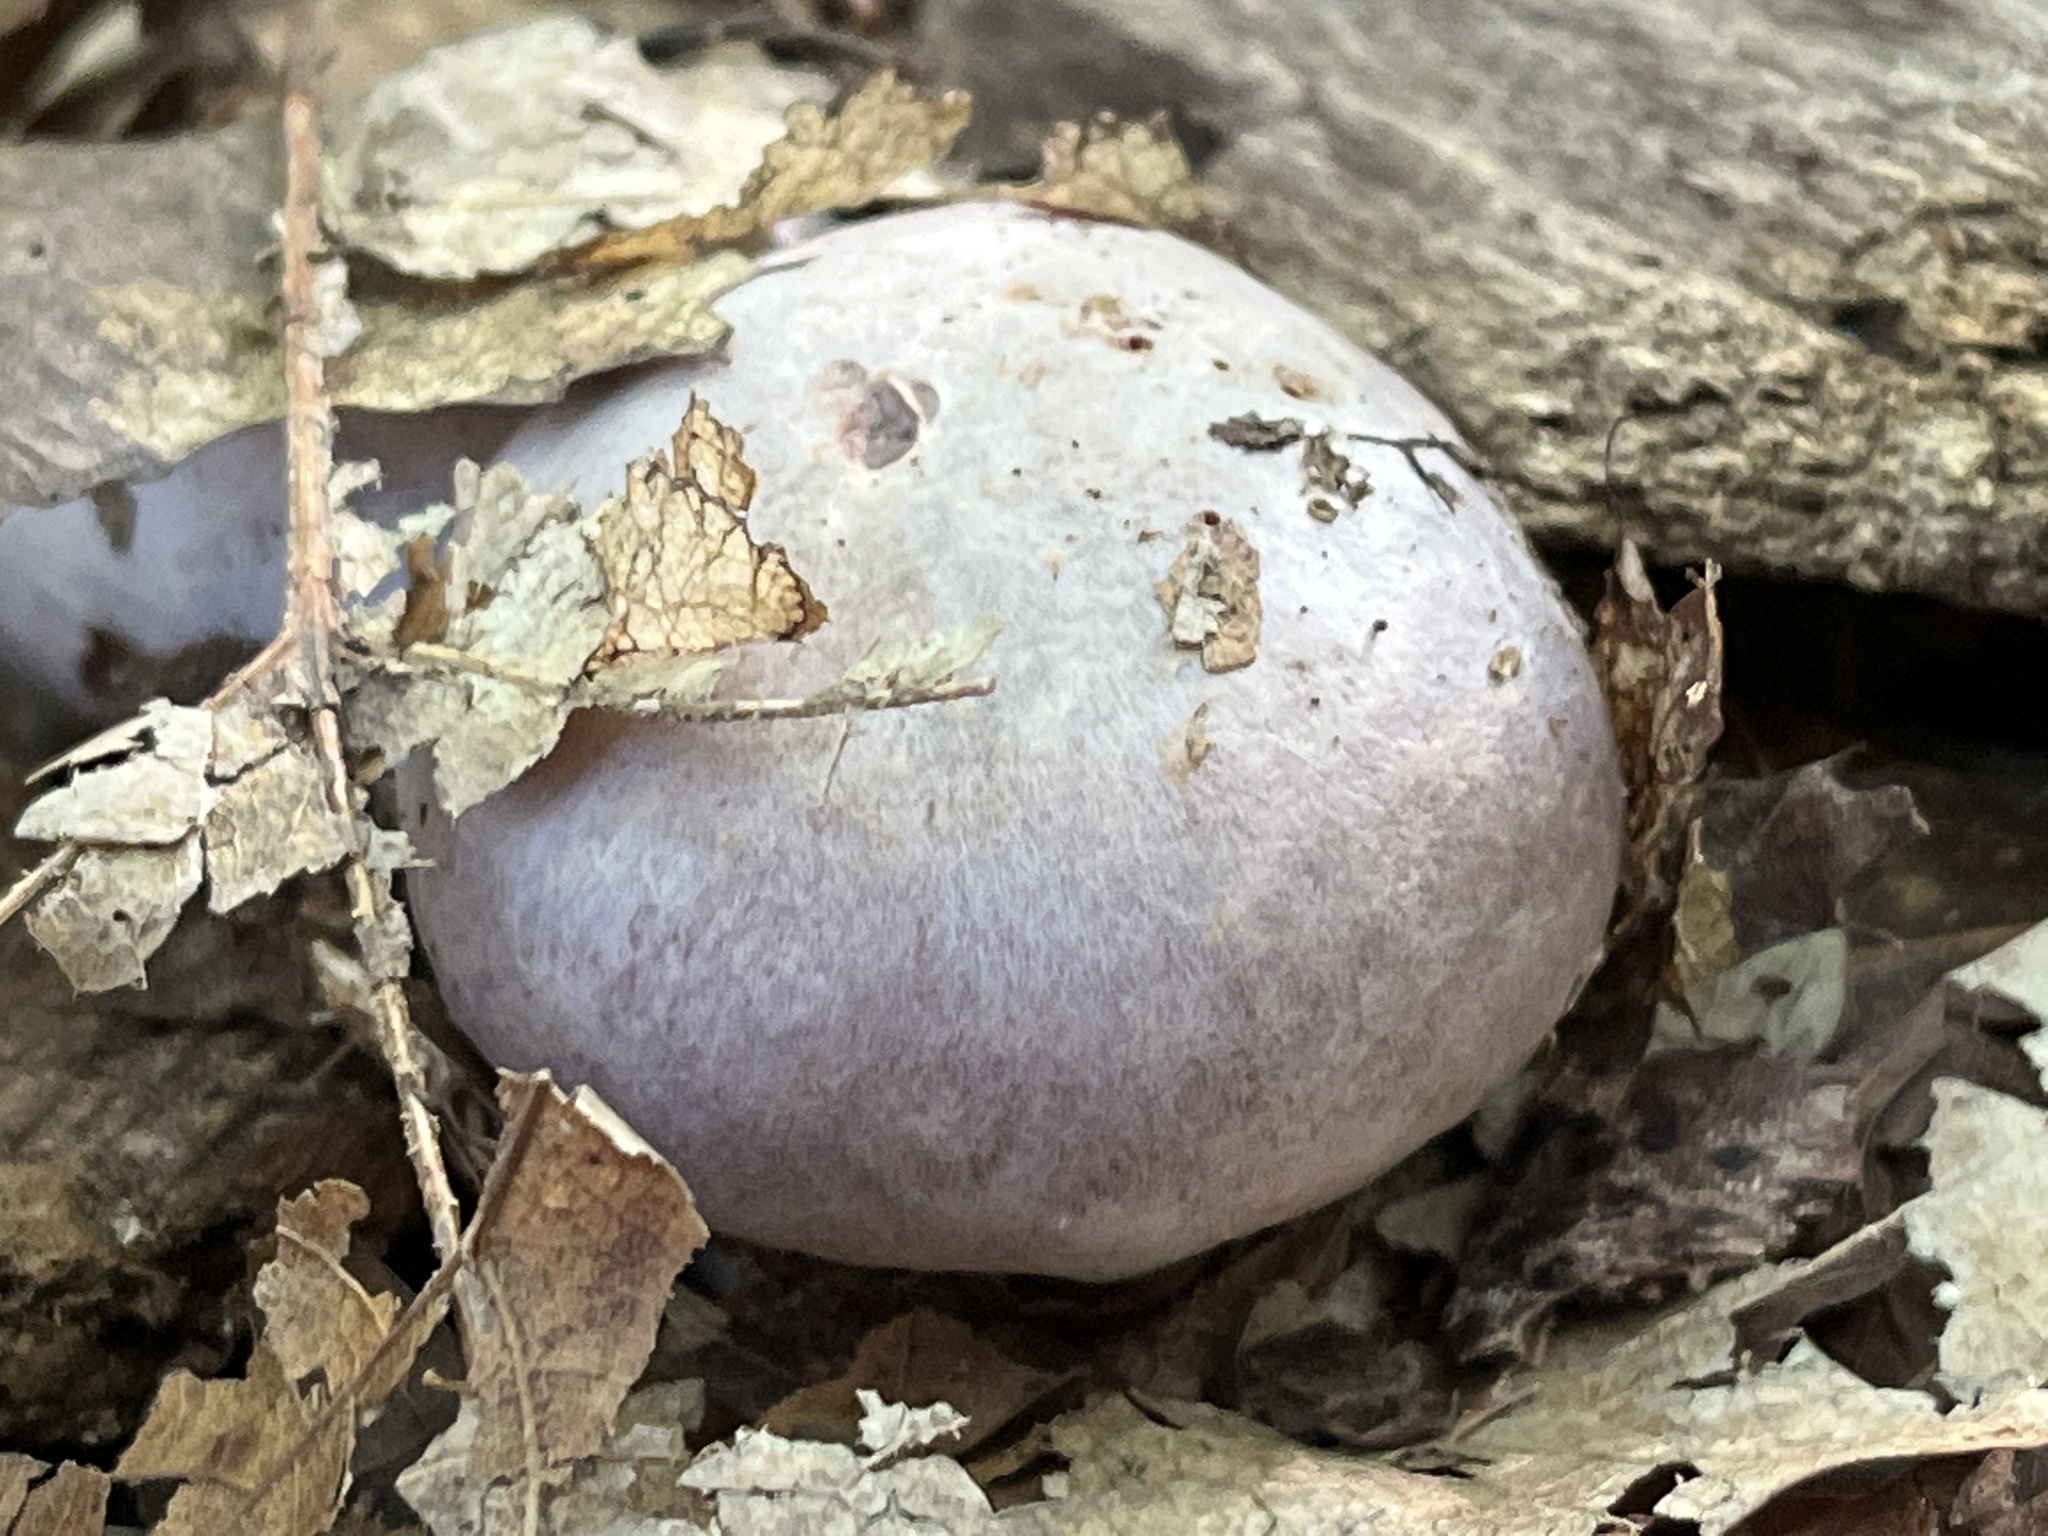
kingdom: Fungi
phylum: Basidiomycota
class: Agaricomycetes
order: Agaricales
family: Cortinariaceae
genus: Cortinarius
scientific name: Cortinarius
